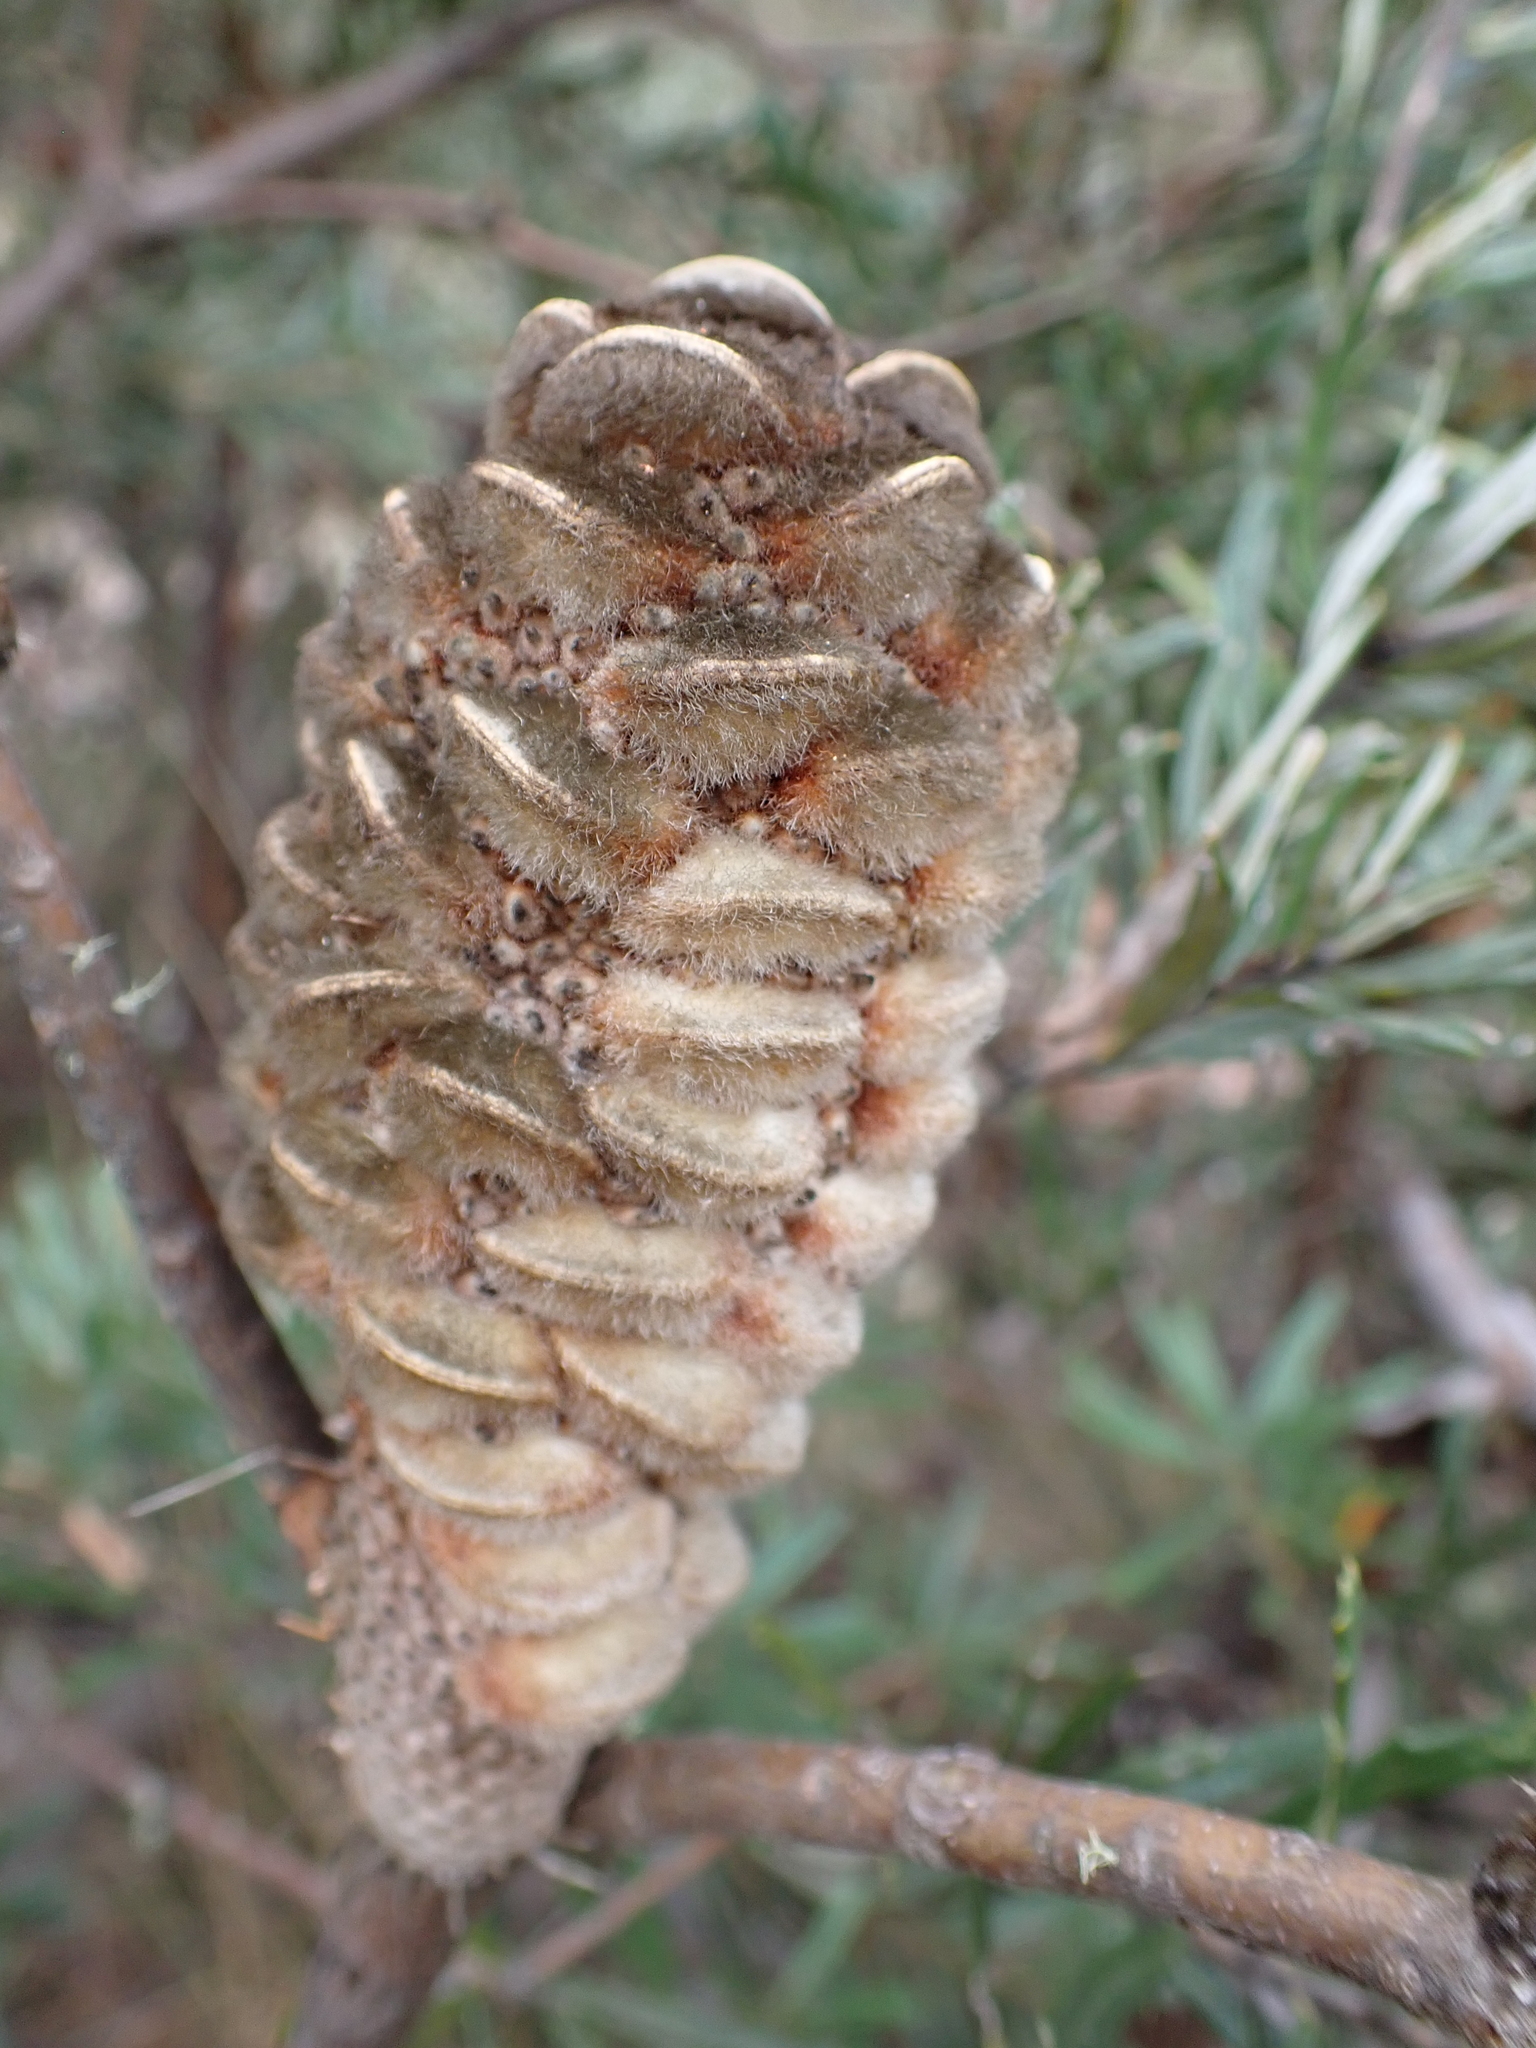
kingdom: Plantae
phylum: Tracheophyta
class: Magnoliopsida
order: Proteales
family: Proteaceae
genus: Banksia
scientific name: Banksia canei
